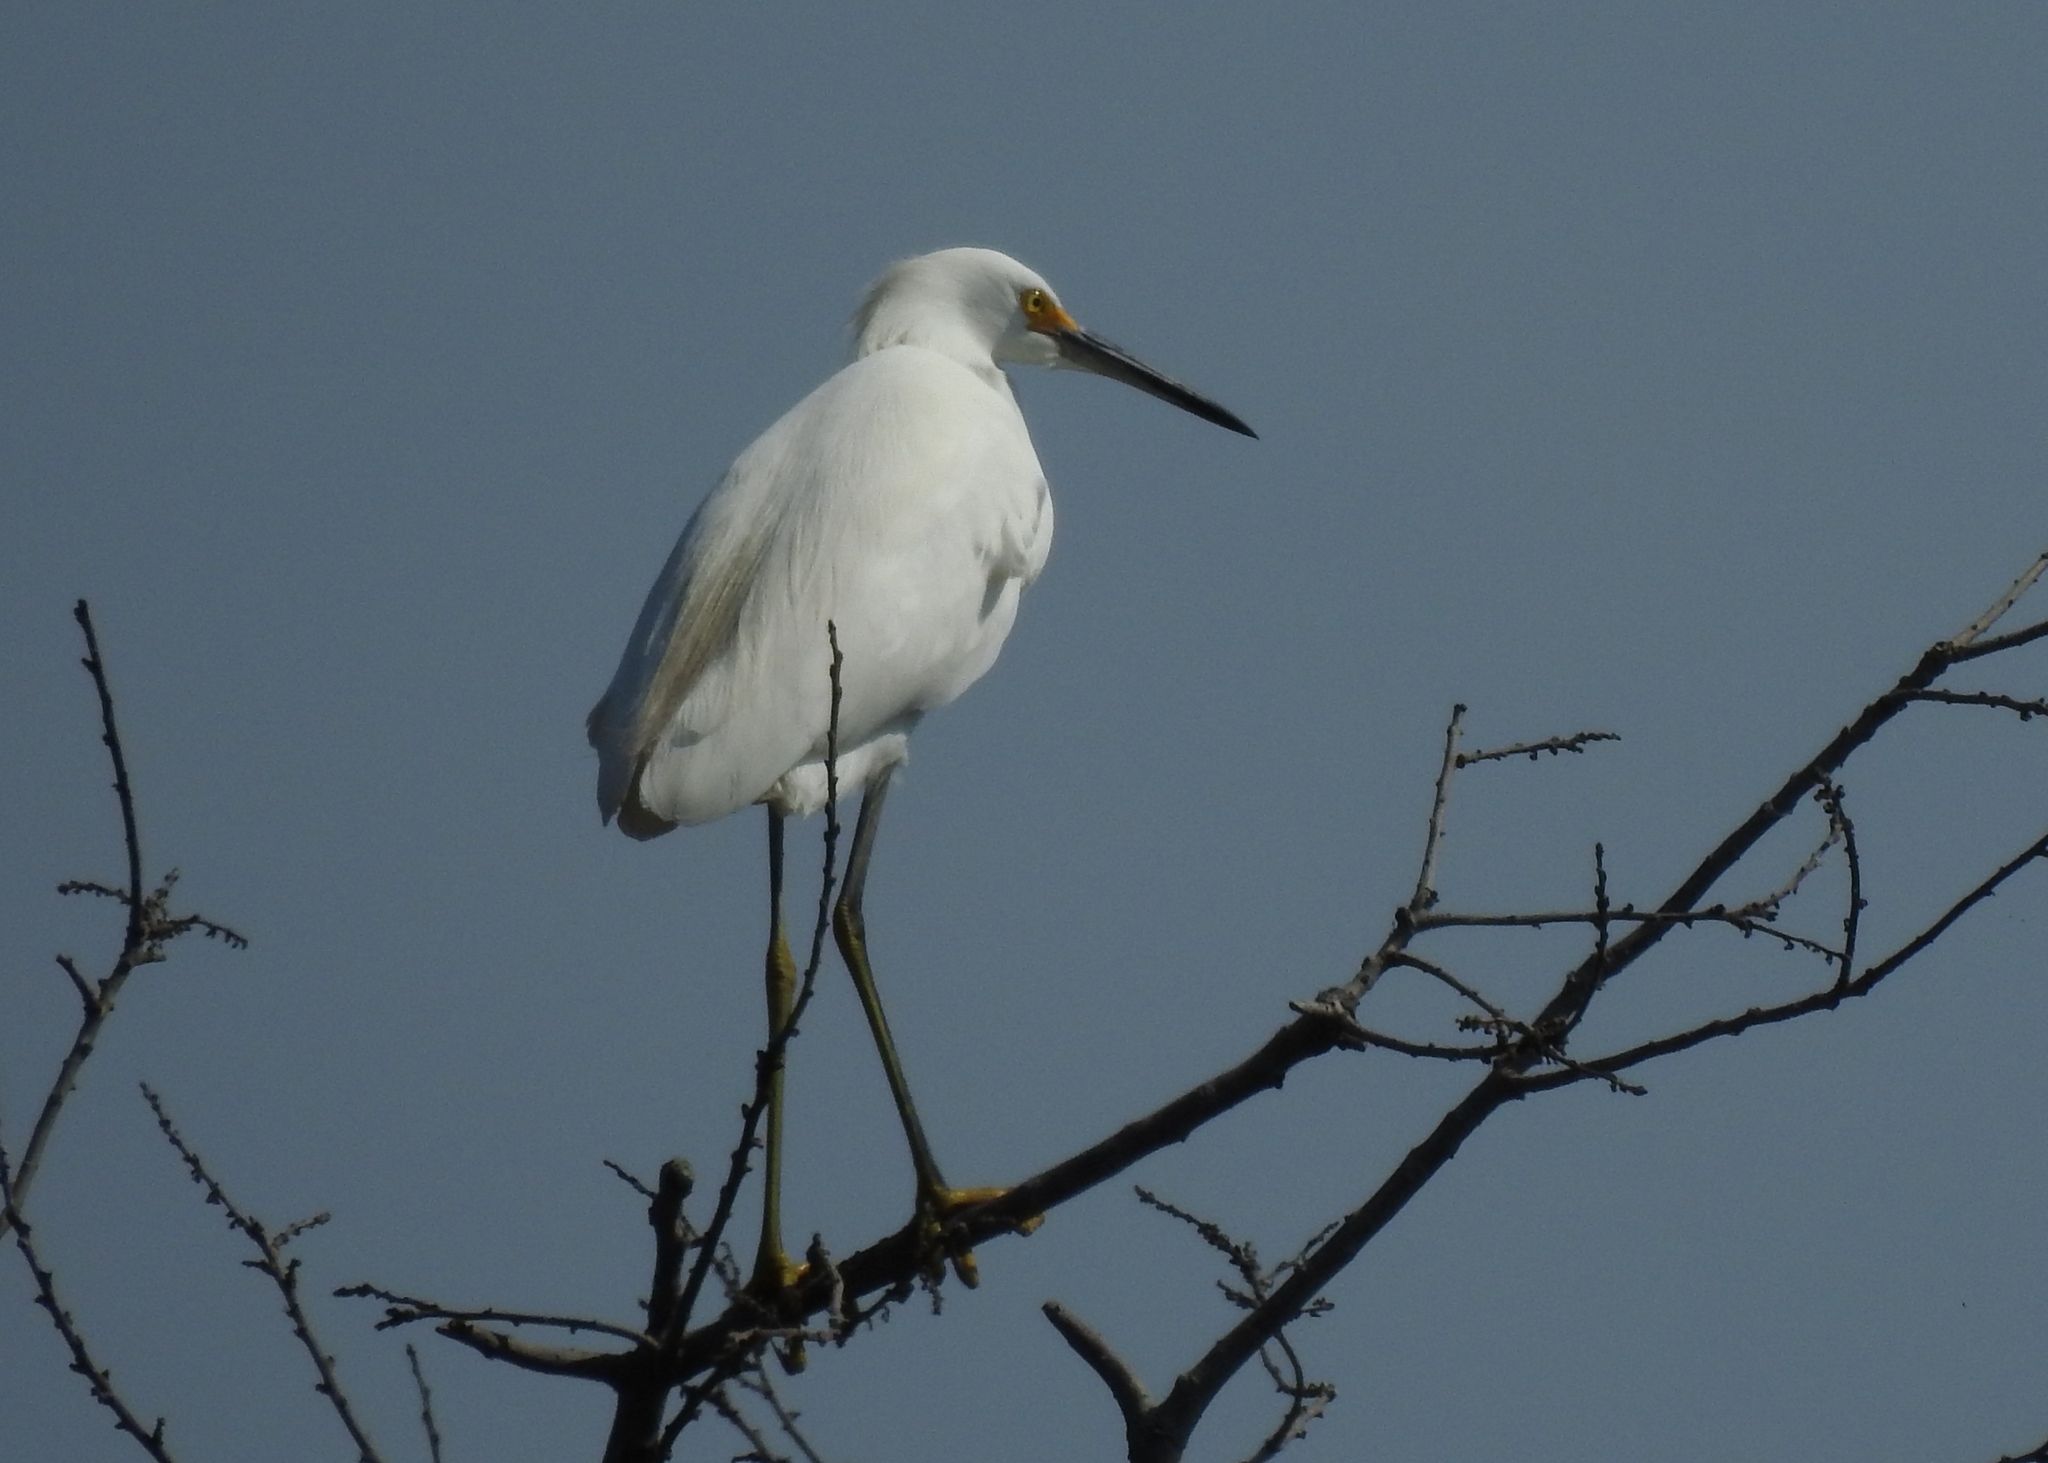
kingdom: Animalia
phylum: Chordata
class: Aves
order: Pelecaniformes
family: Ardeidae
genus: Egretta
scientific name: Egretta thula
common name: Snowy egret
